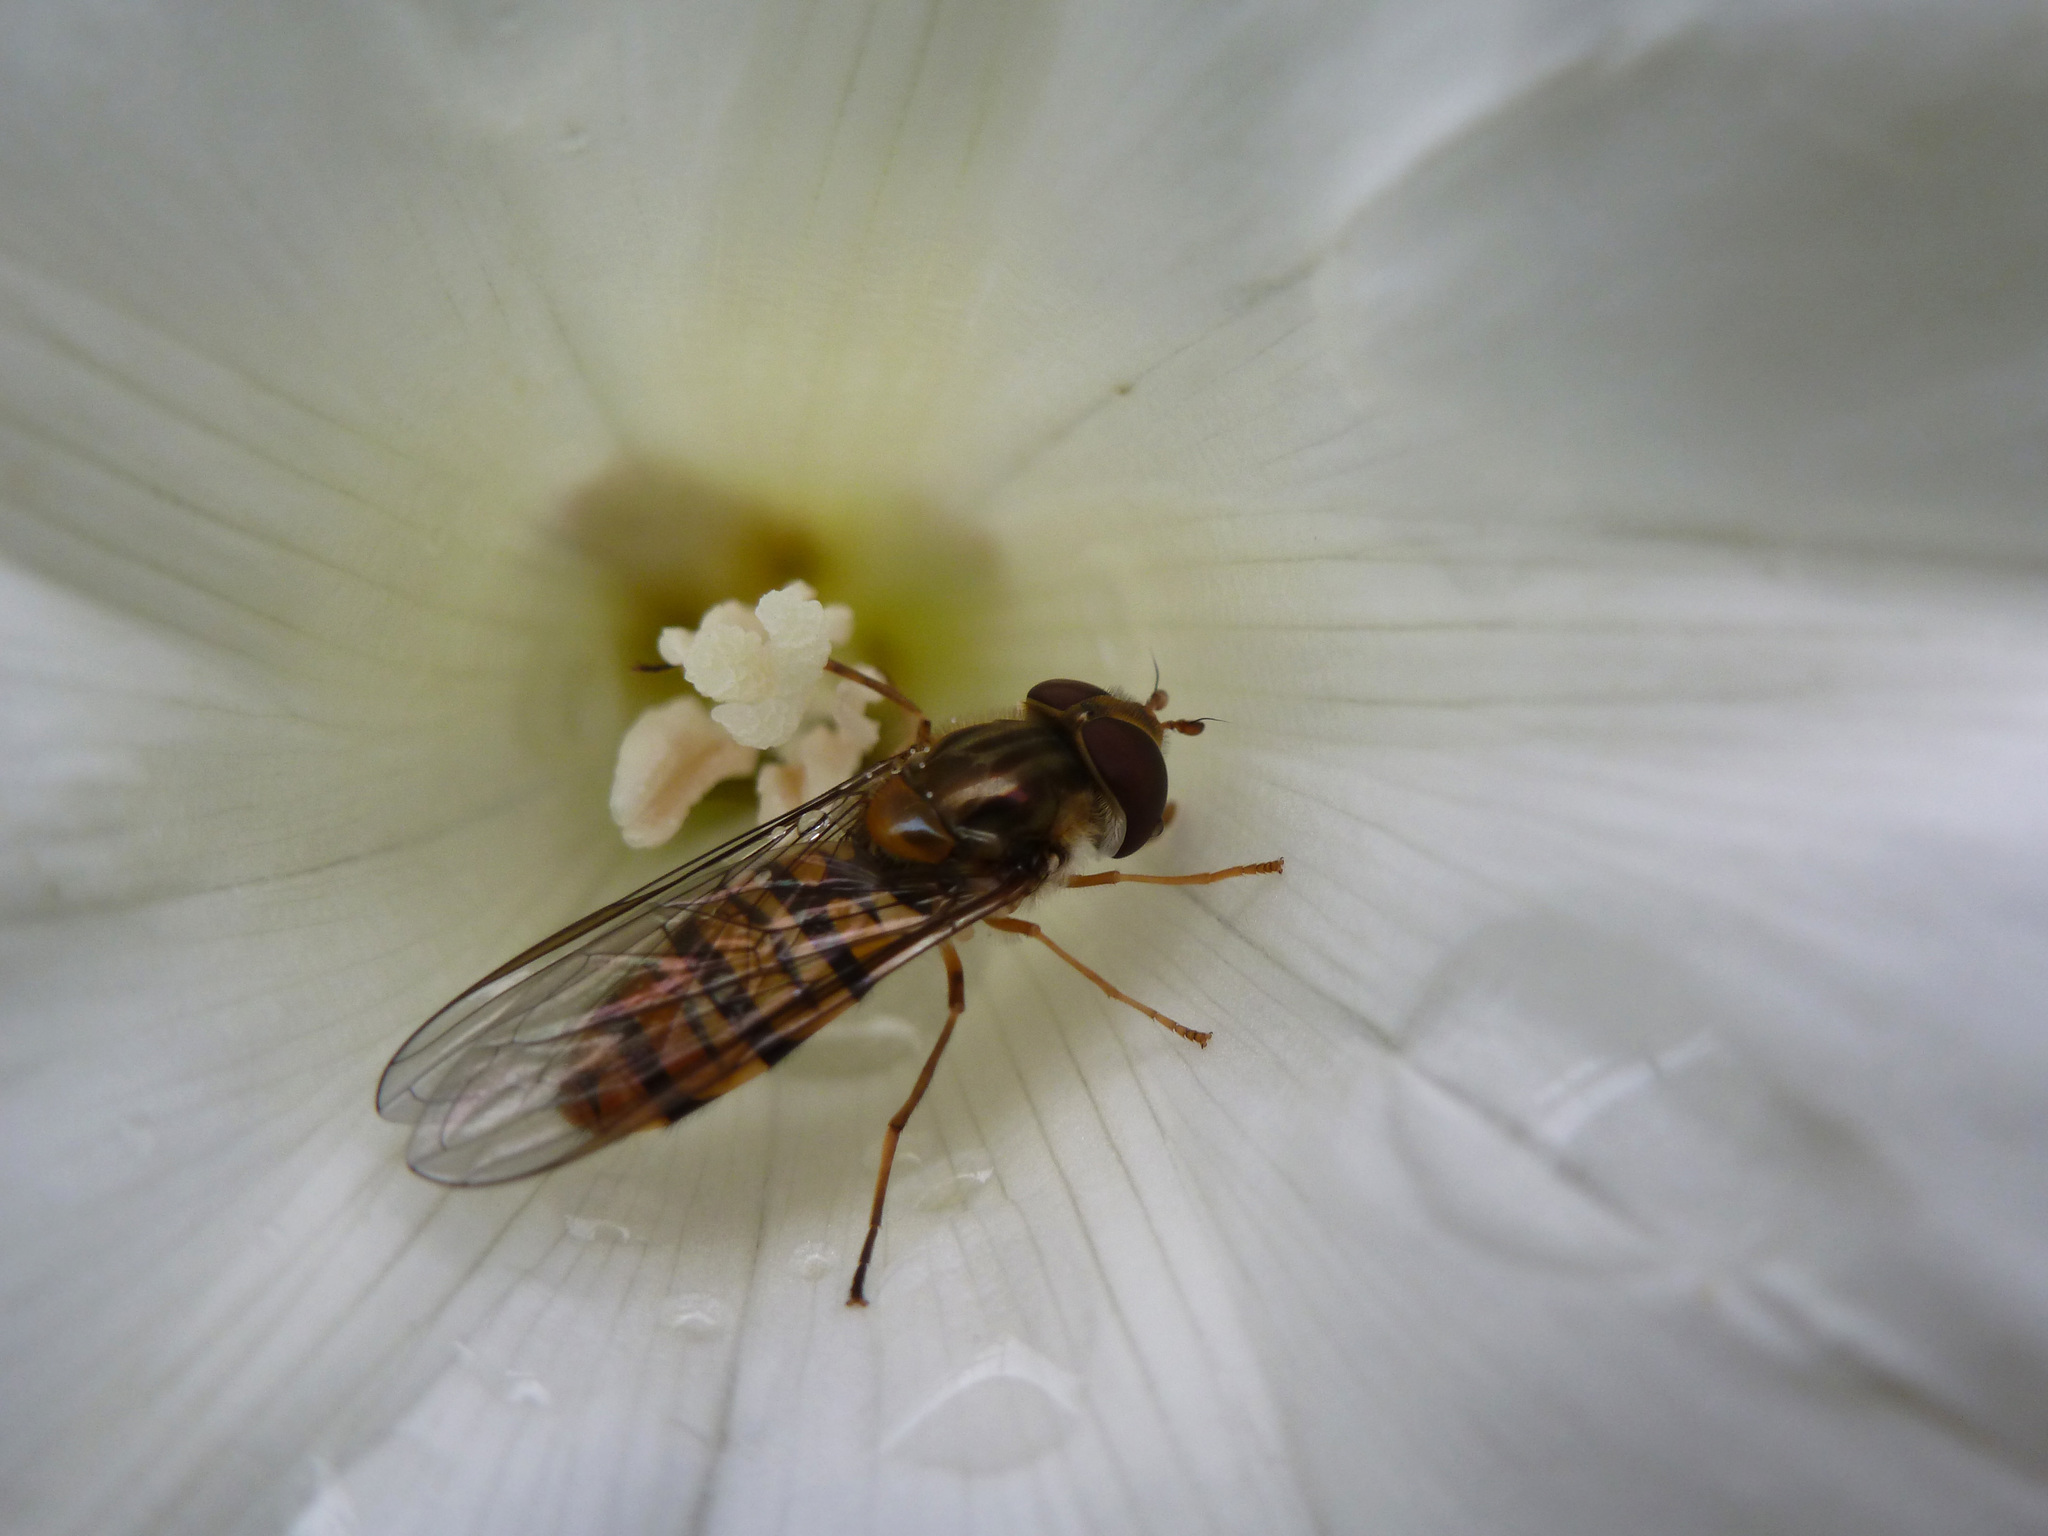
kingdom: Animalia
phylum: Arthropoda
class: Insecta
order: Diptera
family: Syrphidae
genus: Episyrphus
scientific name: Episyrphus balteatus
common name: Marmalade hoverfly
